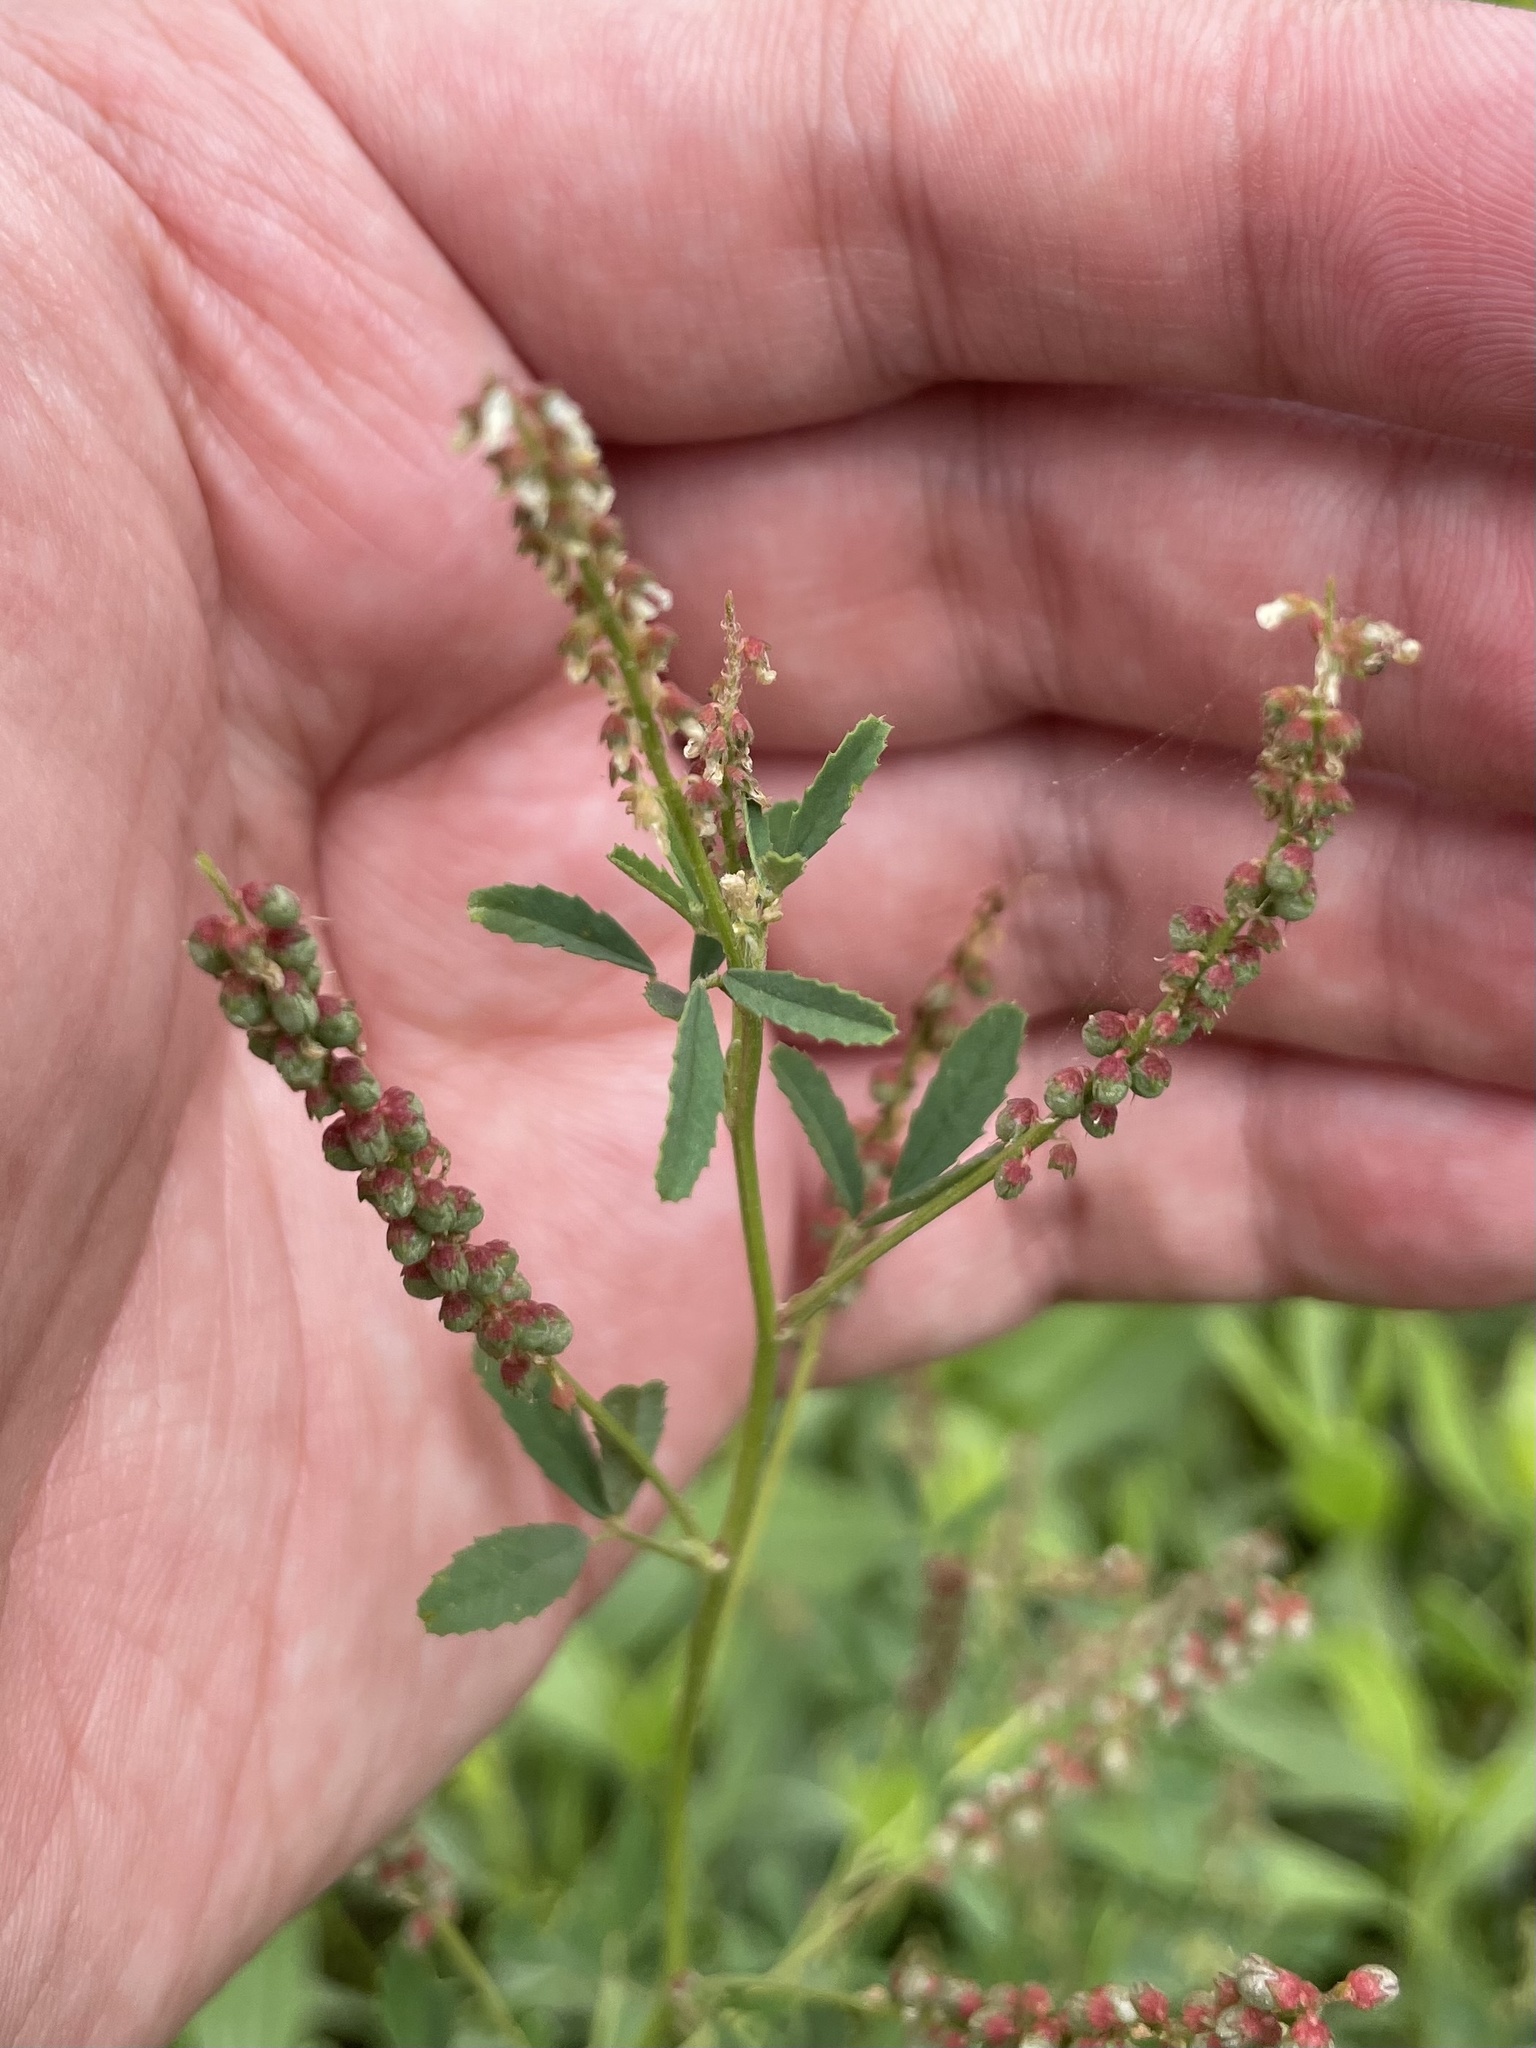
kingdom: Plantae
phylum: Tracheophyta
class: Magnoliopsida
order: Fabales
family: Fabaceae
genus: Melilotus
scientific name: Melilotus indicus
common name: Small melilot
